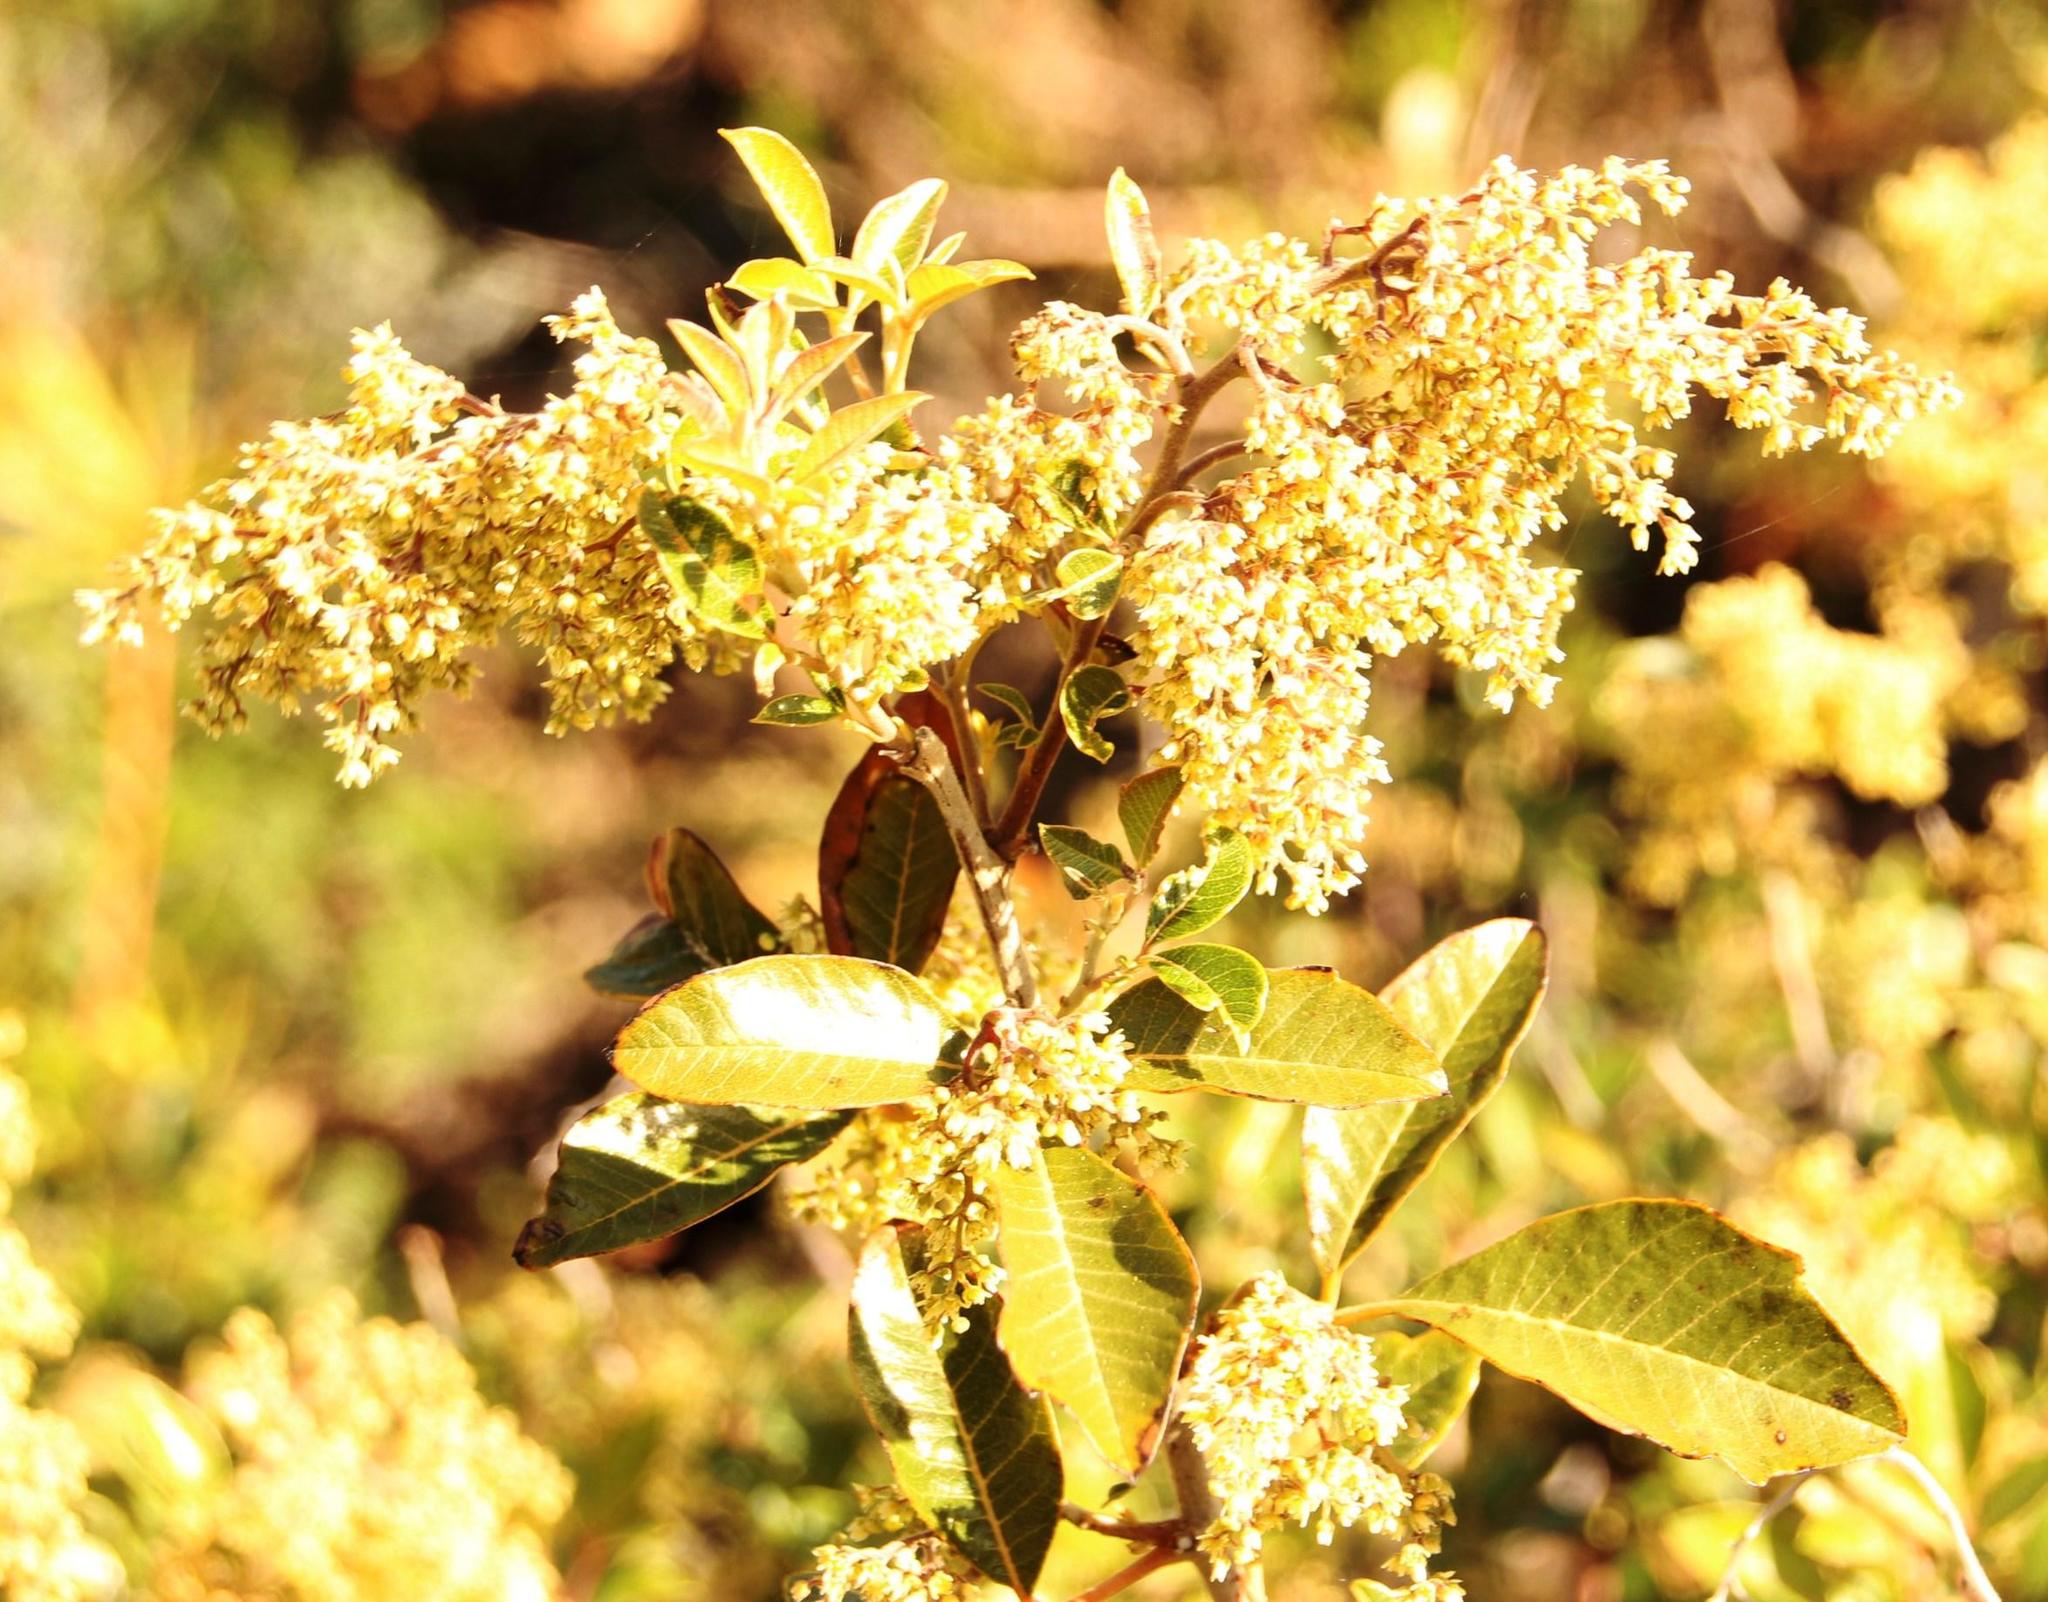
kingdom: Plantae
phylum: Tracheophyta
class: Magnoliopsida
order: Sapindales
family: Anacardiaceae
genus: Searsia
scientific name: Searsia tomentosa
